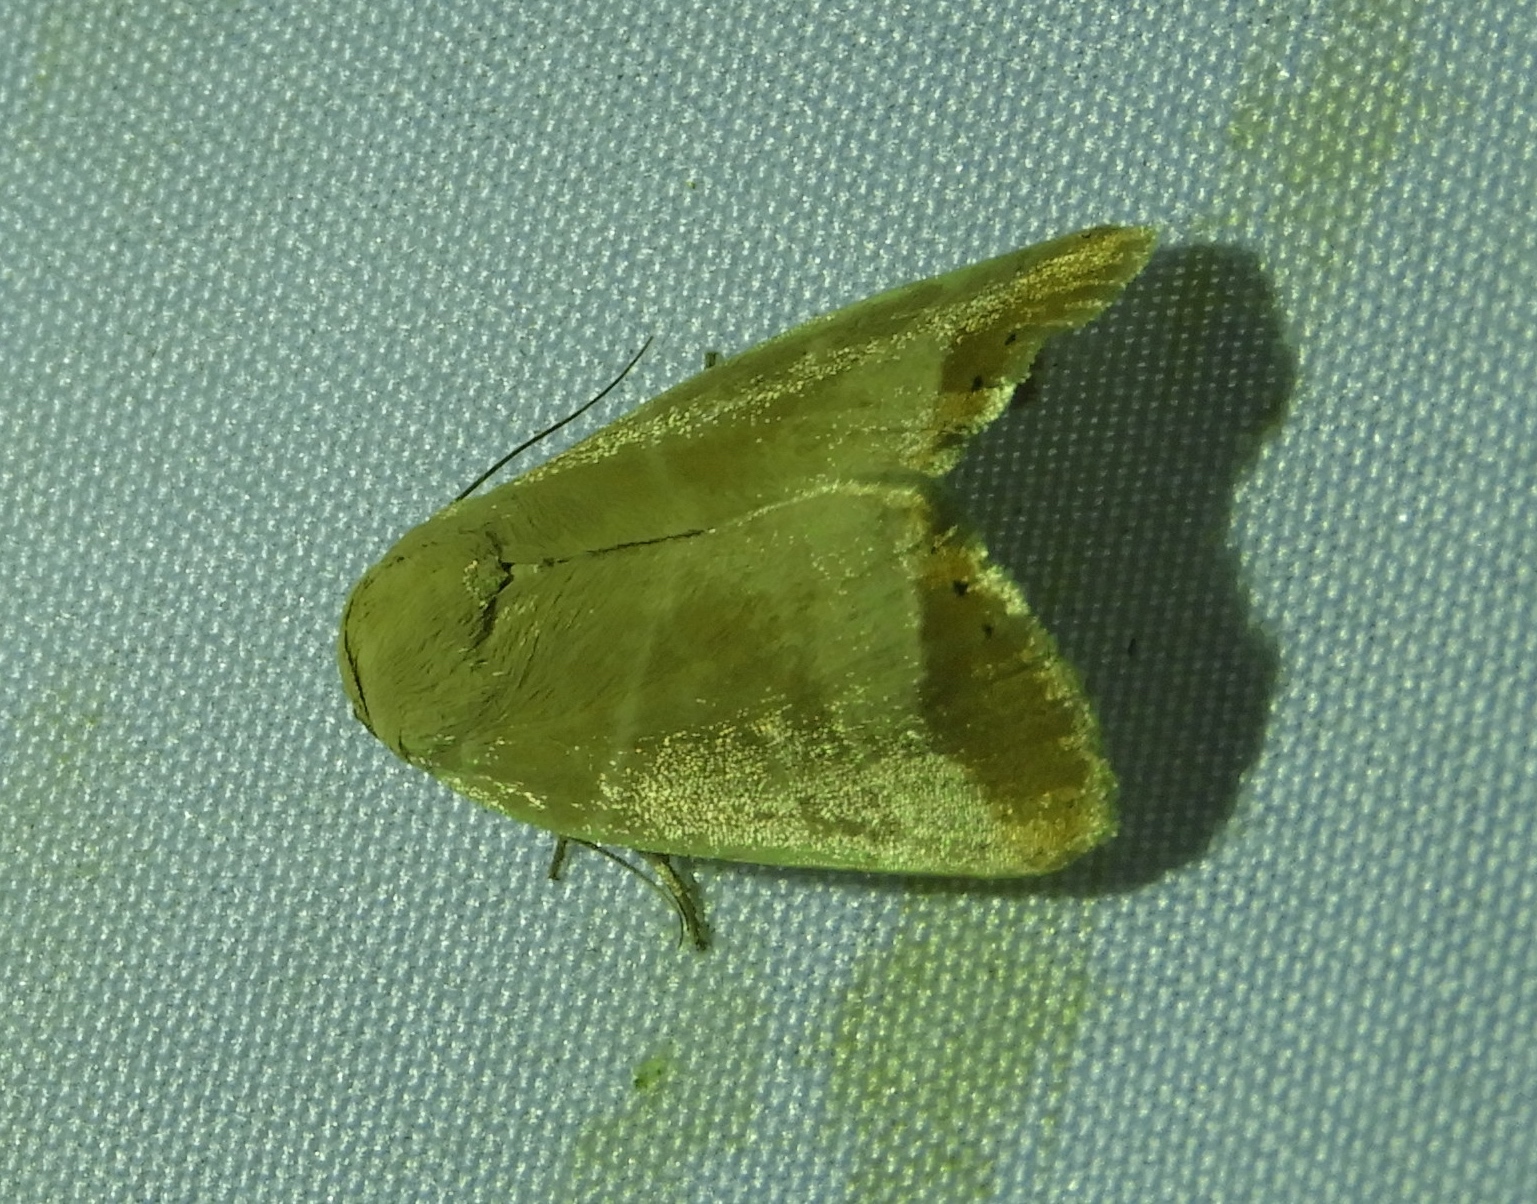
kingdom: Animalia
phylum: Arthropoda
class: Insecta
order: Lepidoptera
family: Noctuidae
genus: Bagisara
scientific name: Bagisara albicosta
